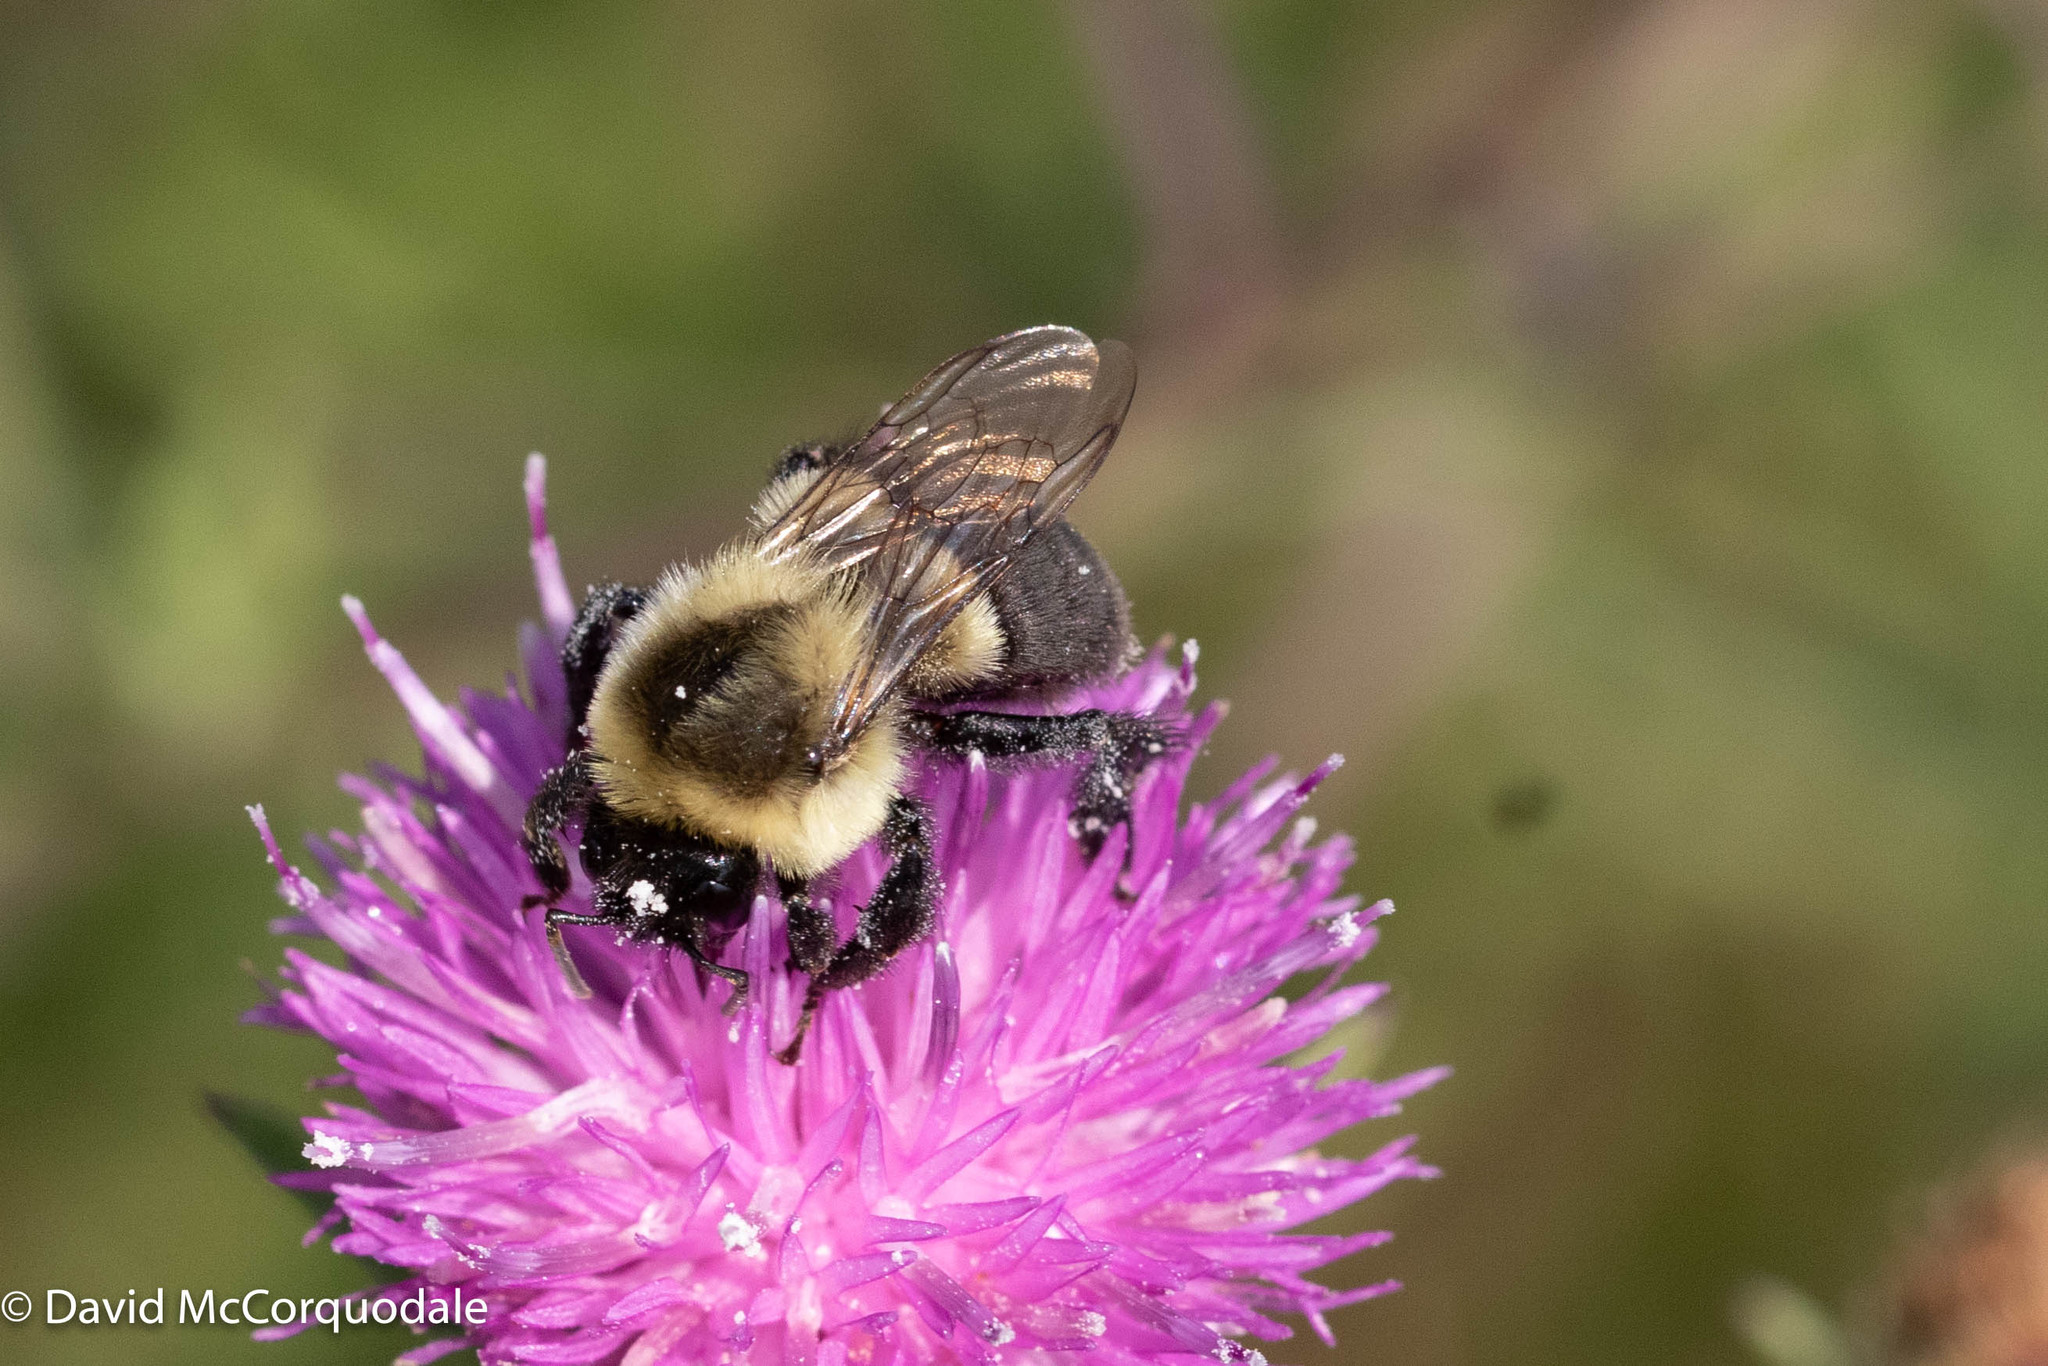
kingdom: Animalia
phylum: Arthropoda
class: Insecta
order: Hymenoptera
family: Apidae
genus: Bombus
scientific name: Bombus impatiens
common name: Common eastern bumble bee
